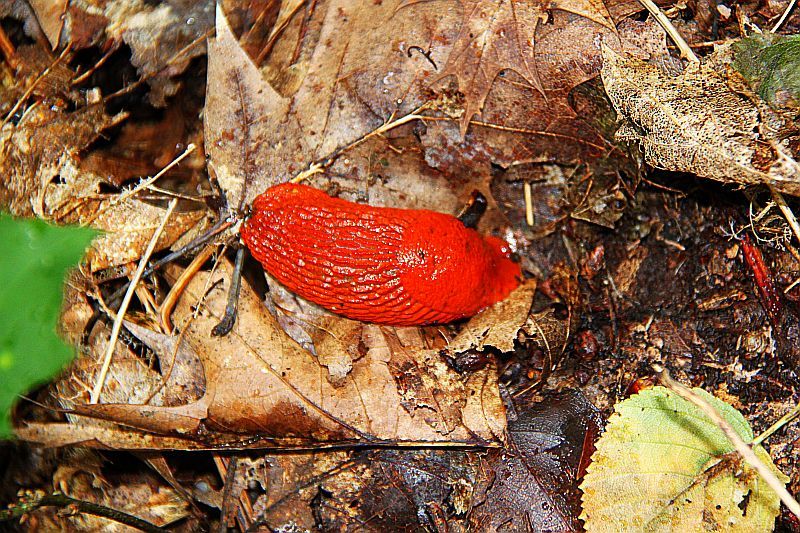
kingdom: Animalia
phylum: Mollusca
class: Gastropoda
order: Stylommatophora
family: Arionidae
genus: Arion
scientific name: Arion rufus
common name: Chocolate arion
